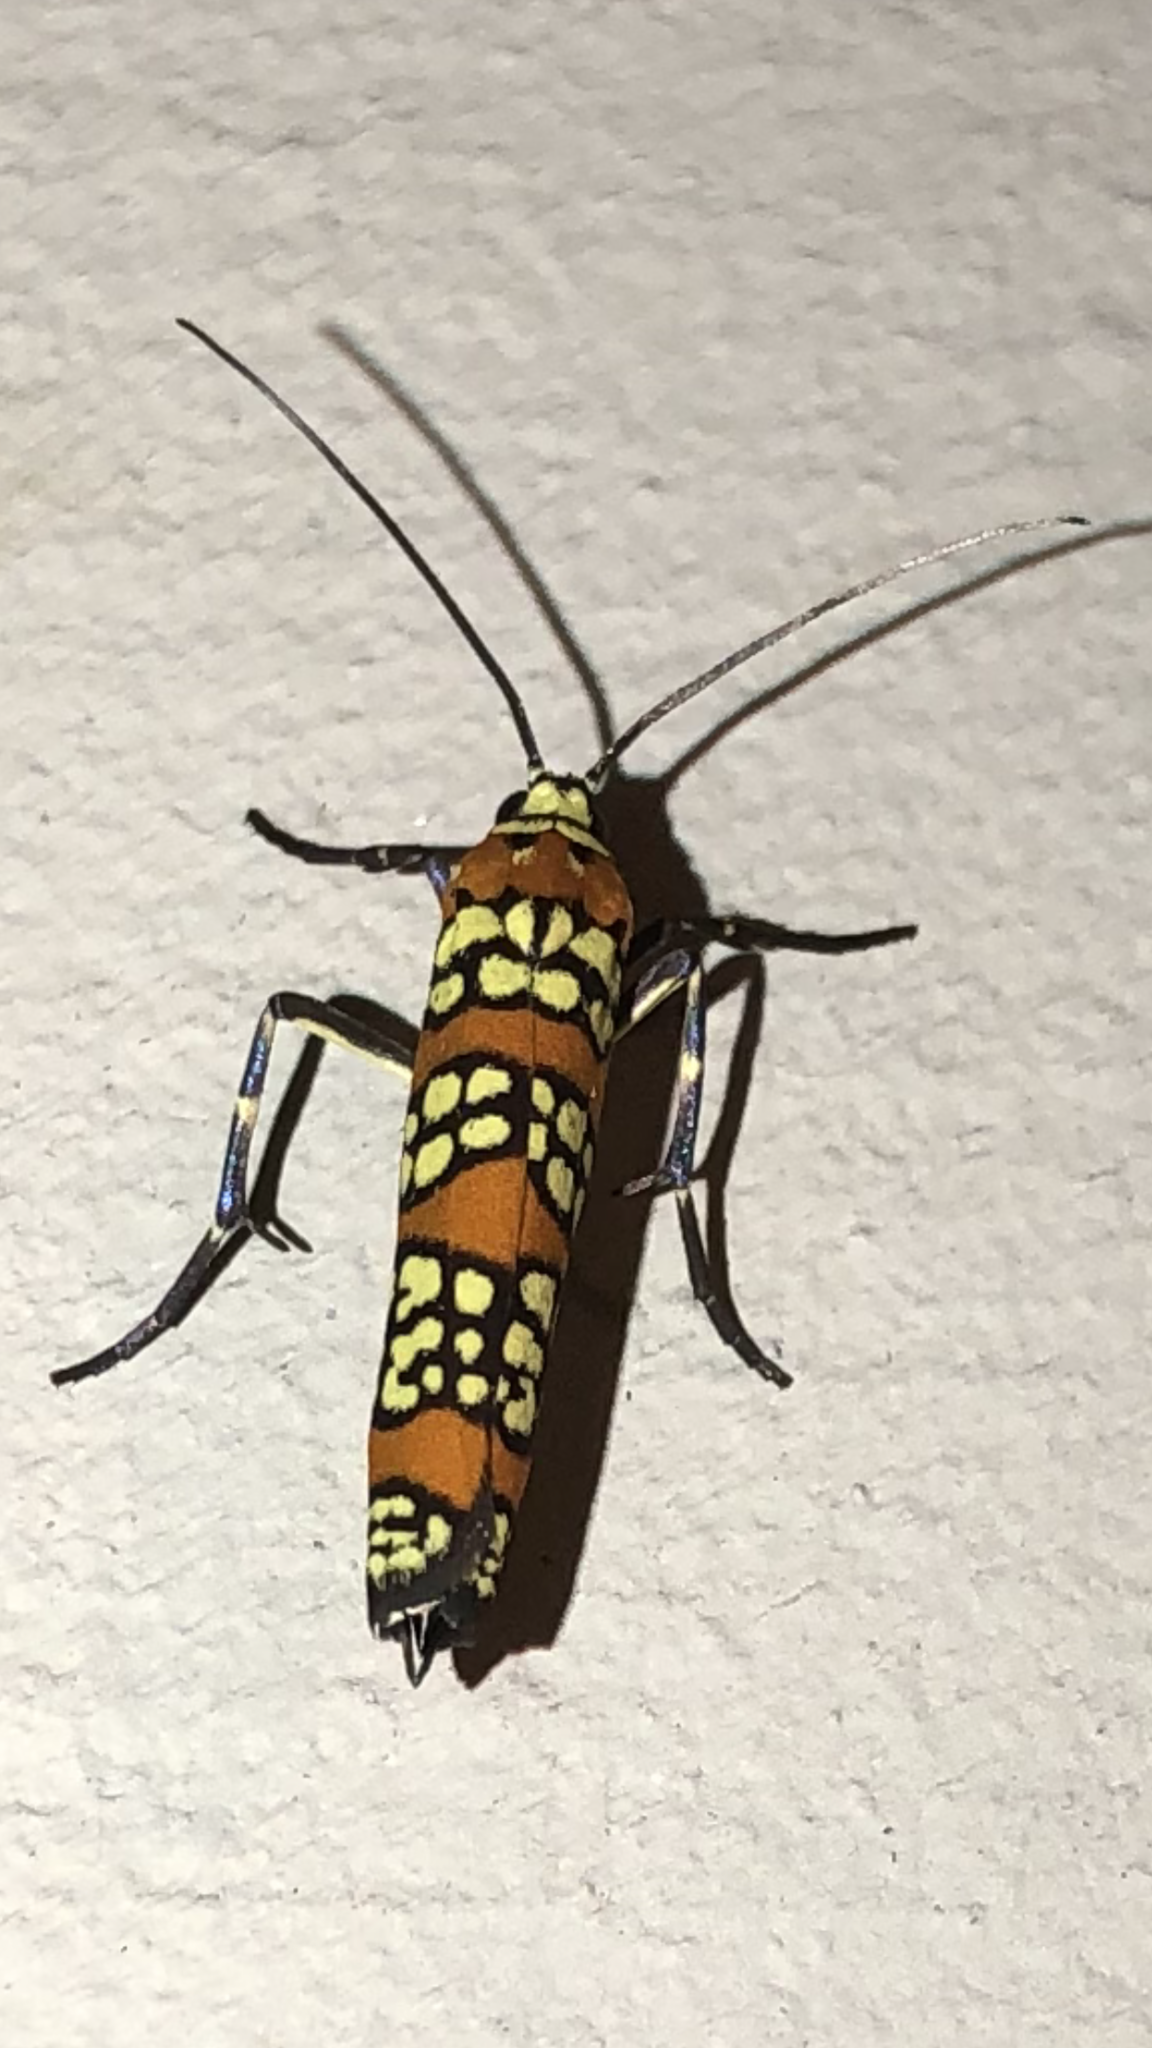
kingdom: Animalia
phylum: Arthropoda
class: Insecta
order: Lepidoptera
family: Attevidae
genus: Atteva
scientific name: Atteva punctella
